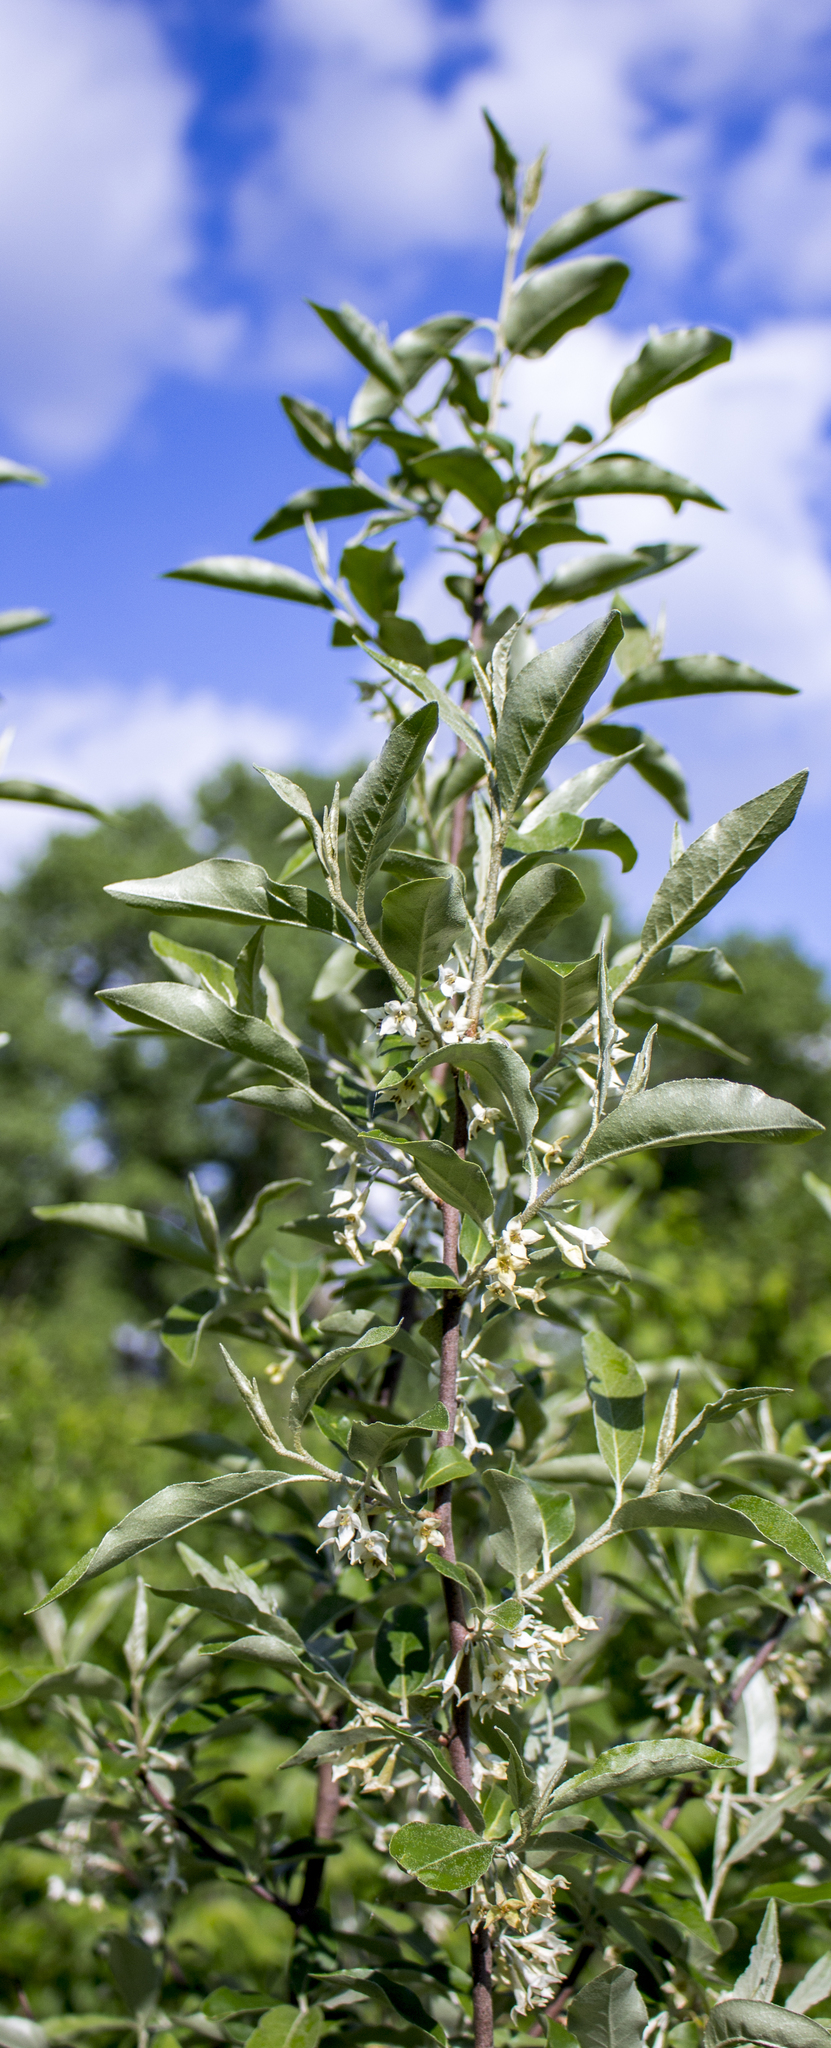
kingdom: Plantae
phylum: Tracheophyta
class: Magnoliopsida
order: Rosales
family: Elaeagnaceae
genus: Elaeagnus
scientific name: Elaeagnus umbellata
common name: Autumn olive
